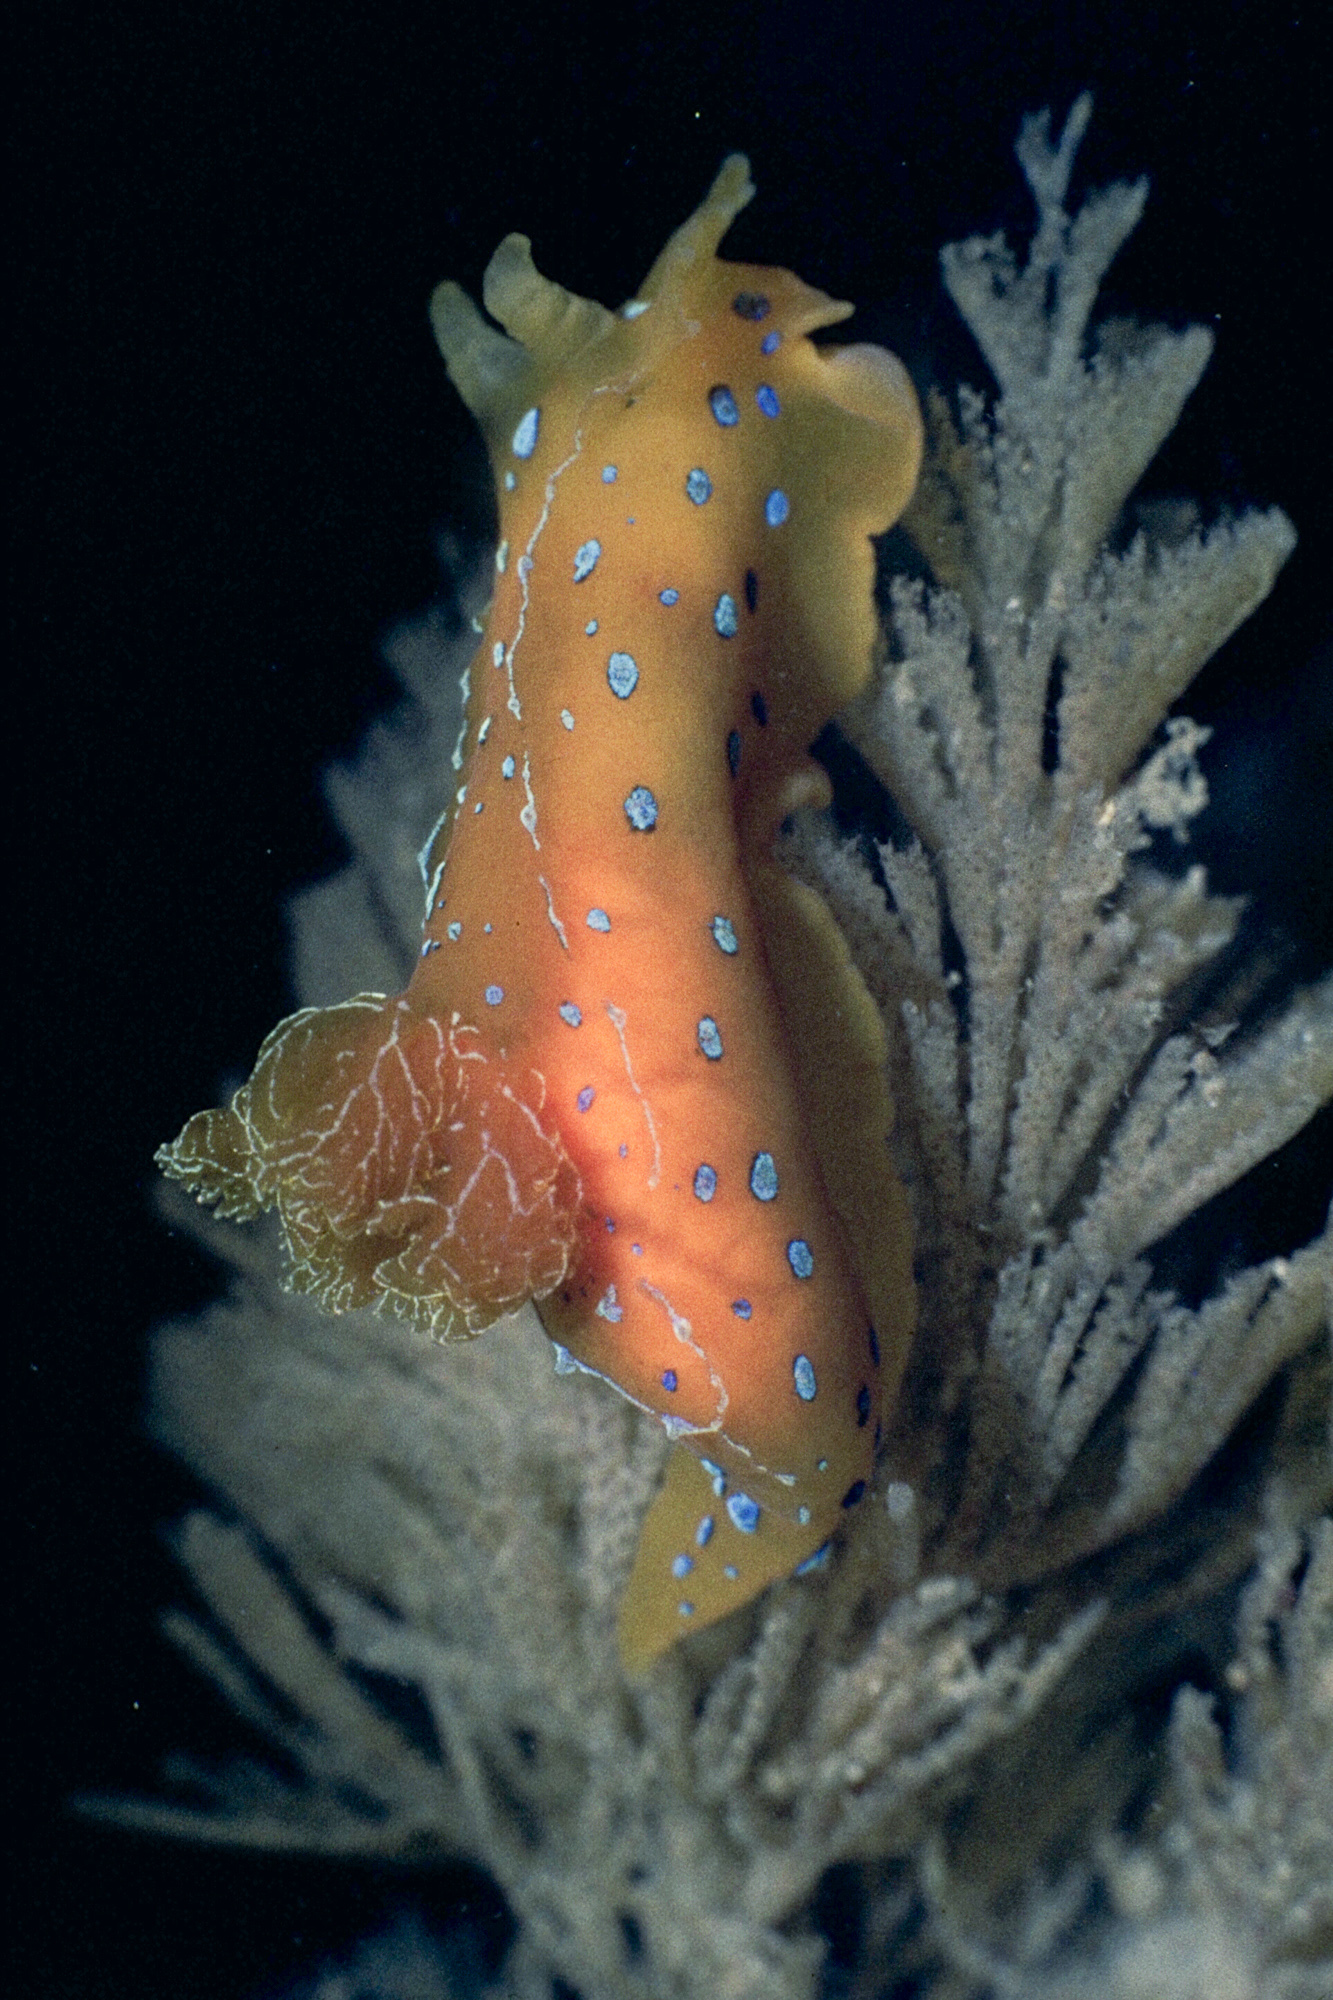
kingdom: Animalia
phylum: Mollusca
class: Gastropoda
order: Nudibranchia
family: Polyceridae
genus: Polycera
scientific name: Polycera elegans
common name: Spotted satsuma slug
